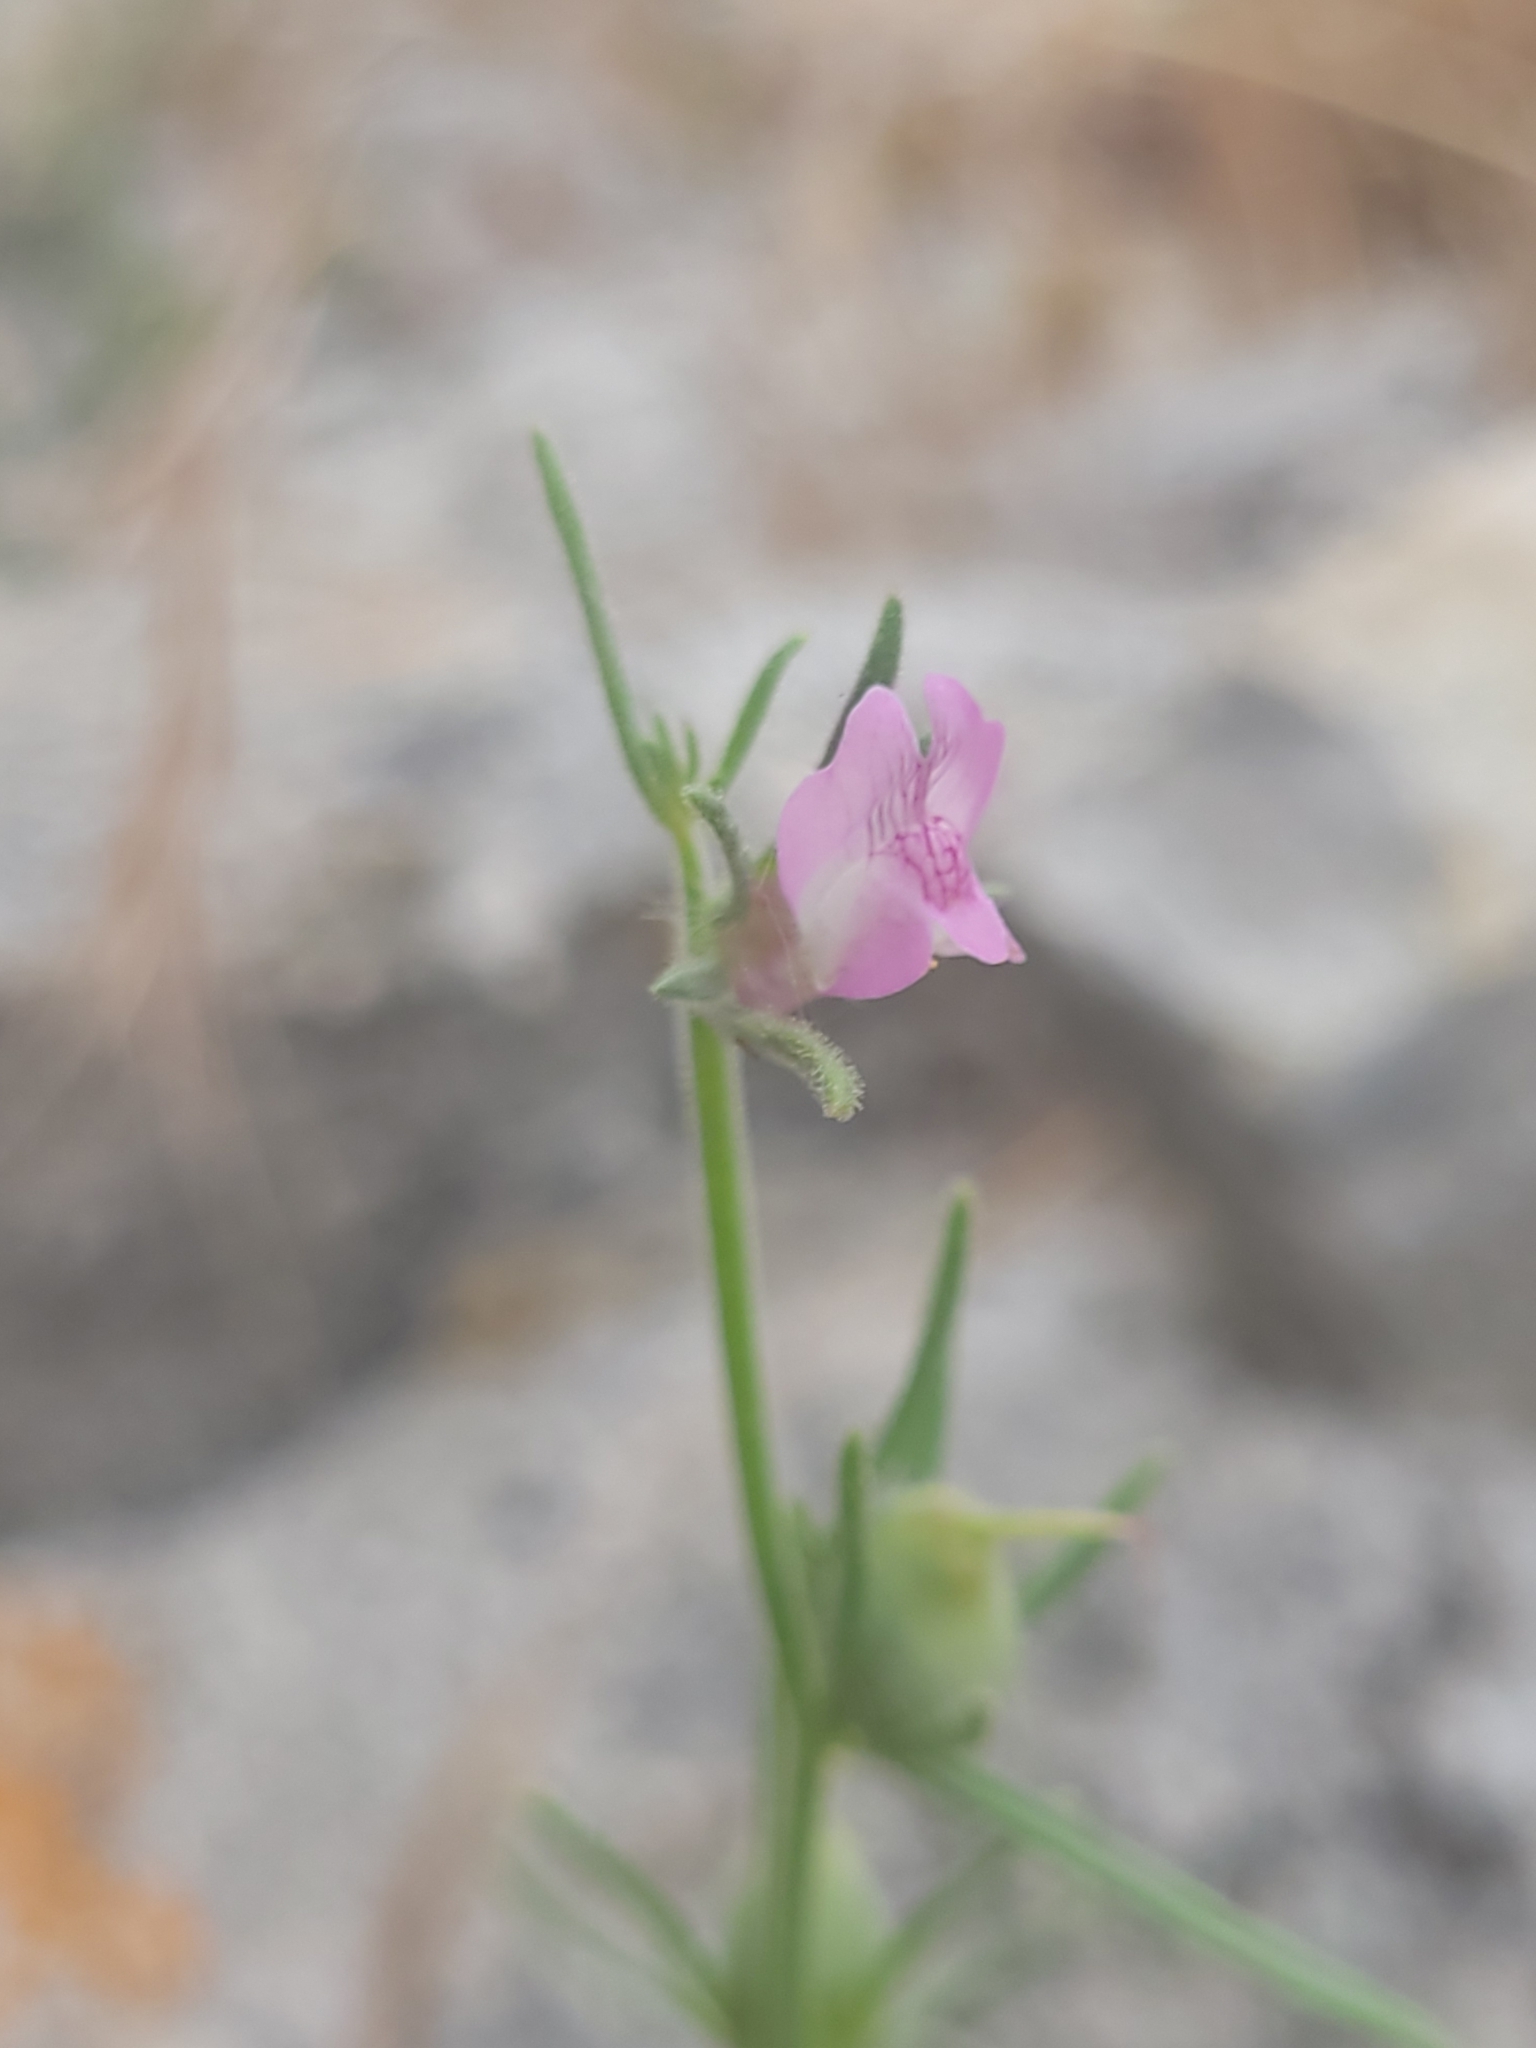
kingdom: Plantae
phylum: Tracheophyta
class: Magnoliopsida
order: Lamiales
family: Plantaginaceae
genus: Misopates
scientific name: Misopates orontium
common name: Weasel's-snout
